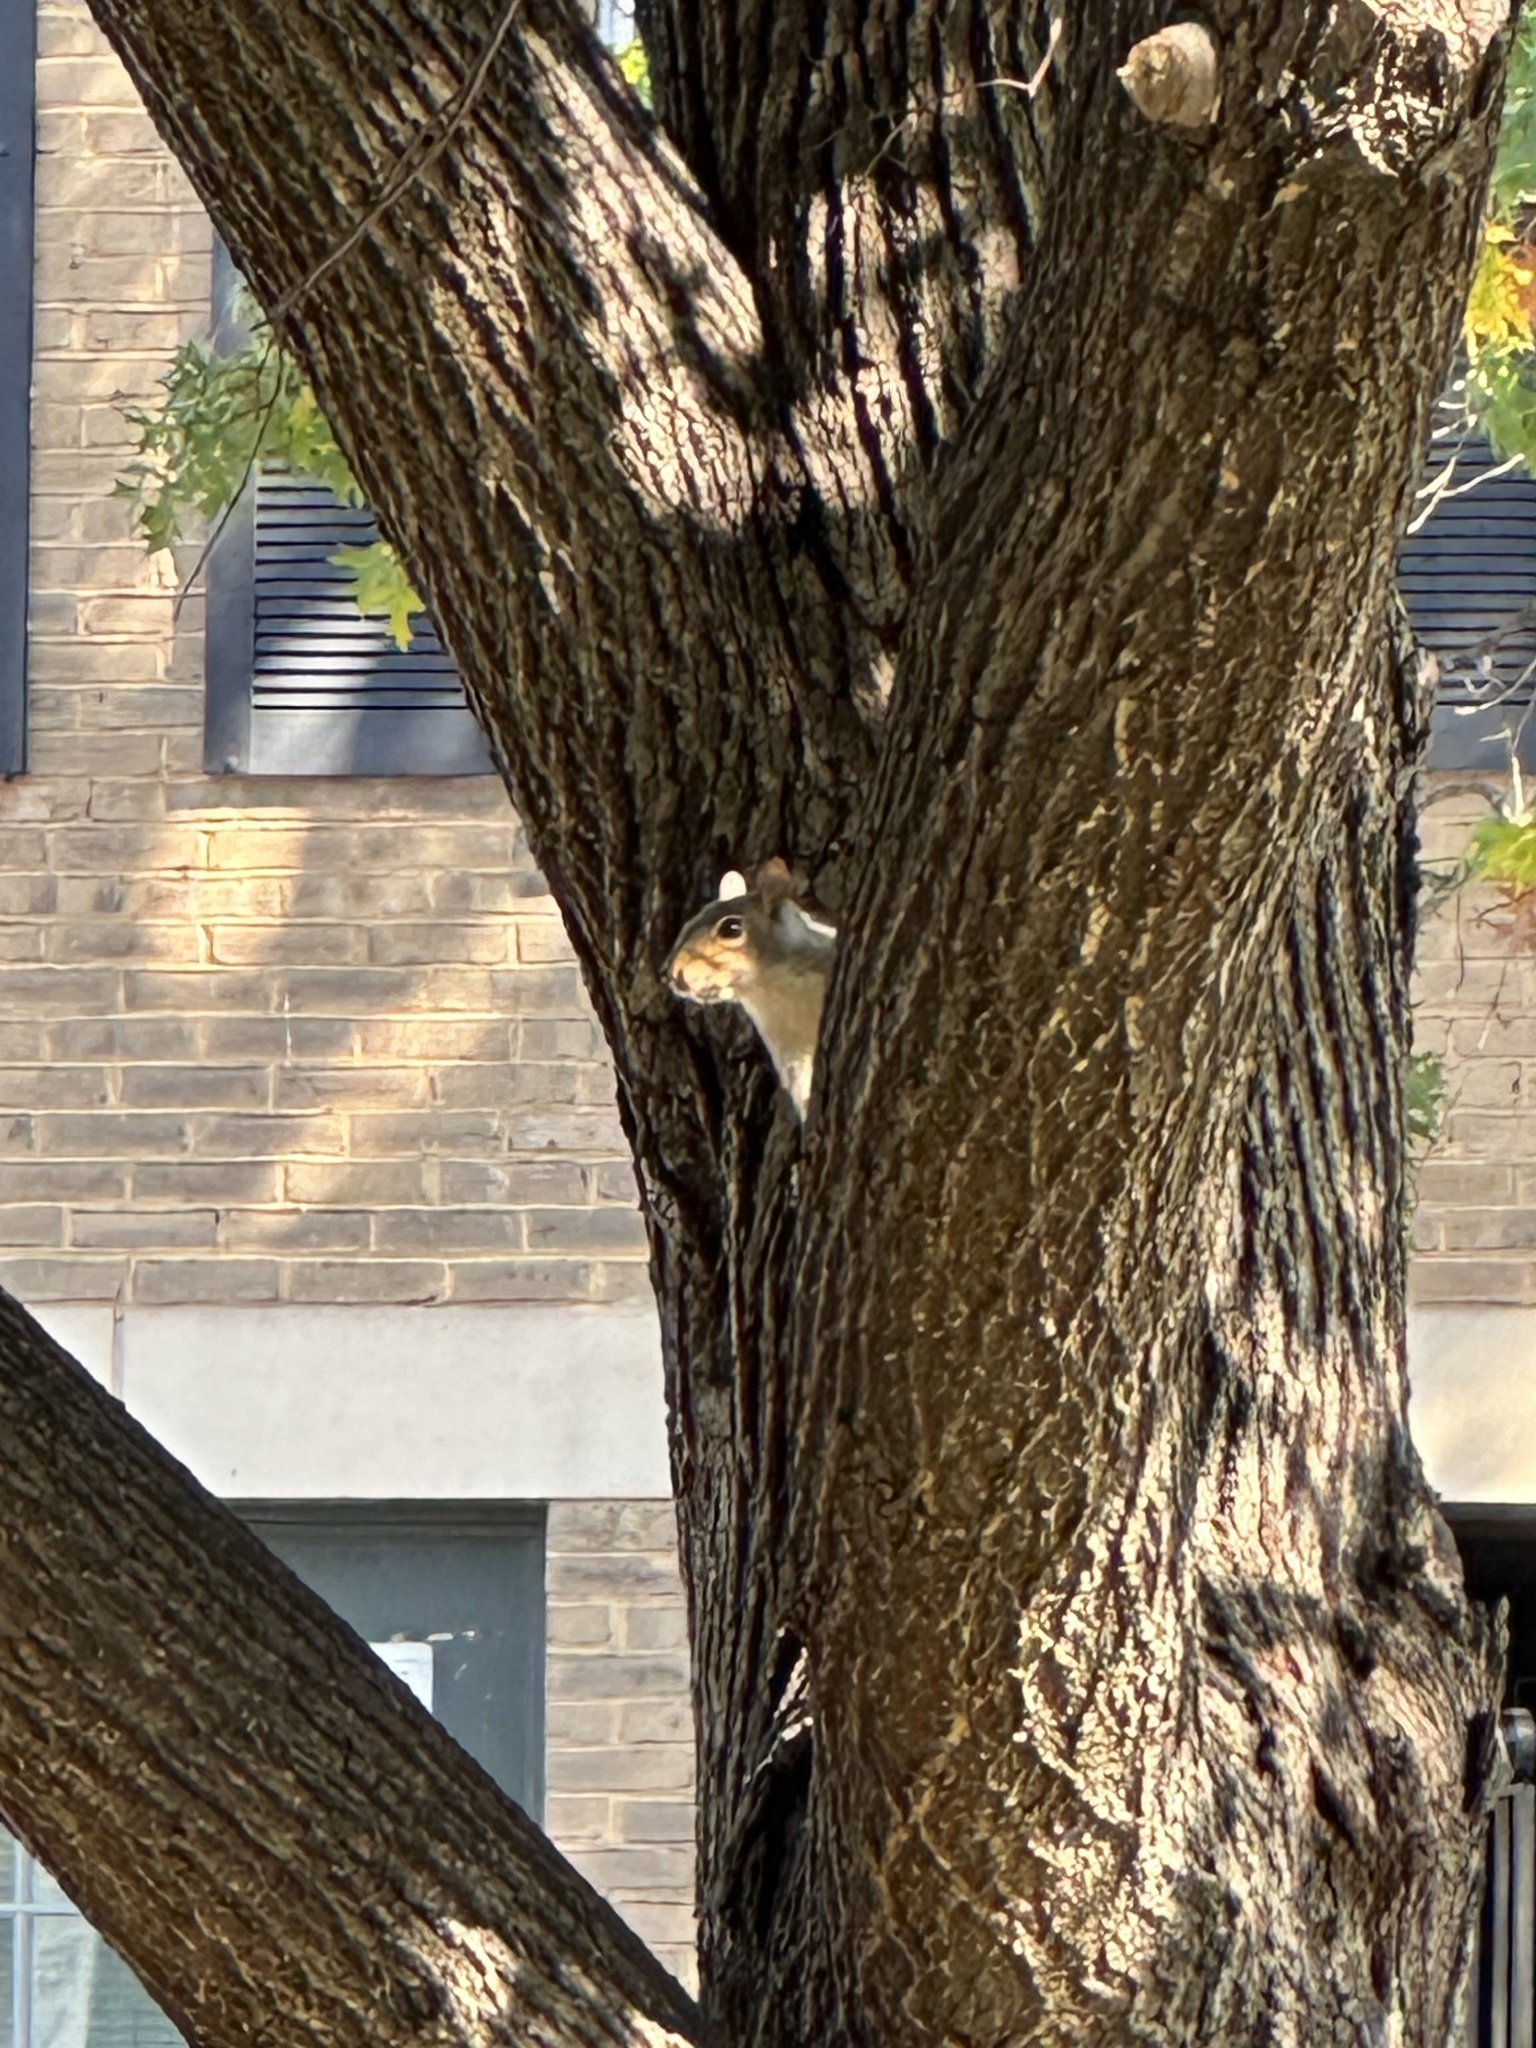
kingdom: Animalia
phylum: Chordata
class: Mammalia
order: Rodentia
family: Sciuridae
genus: Sciurus
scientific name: Sciurus carolinensis
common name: Eastern gray squirrel
